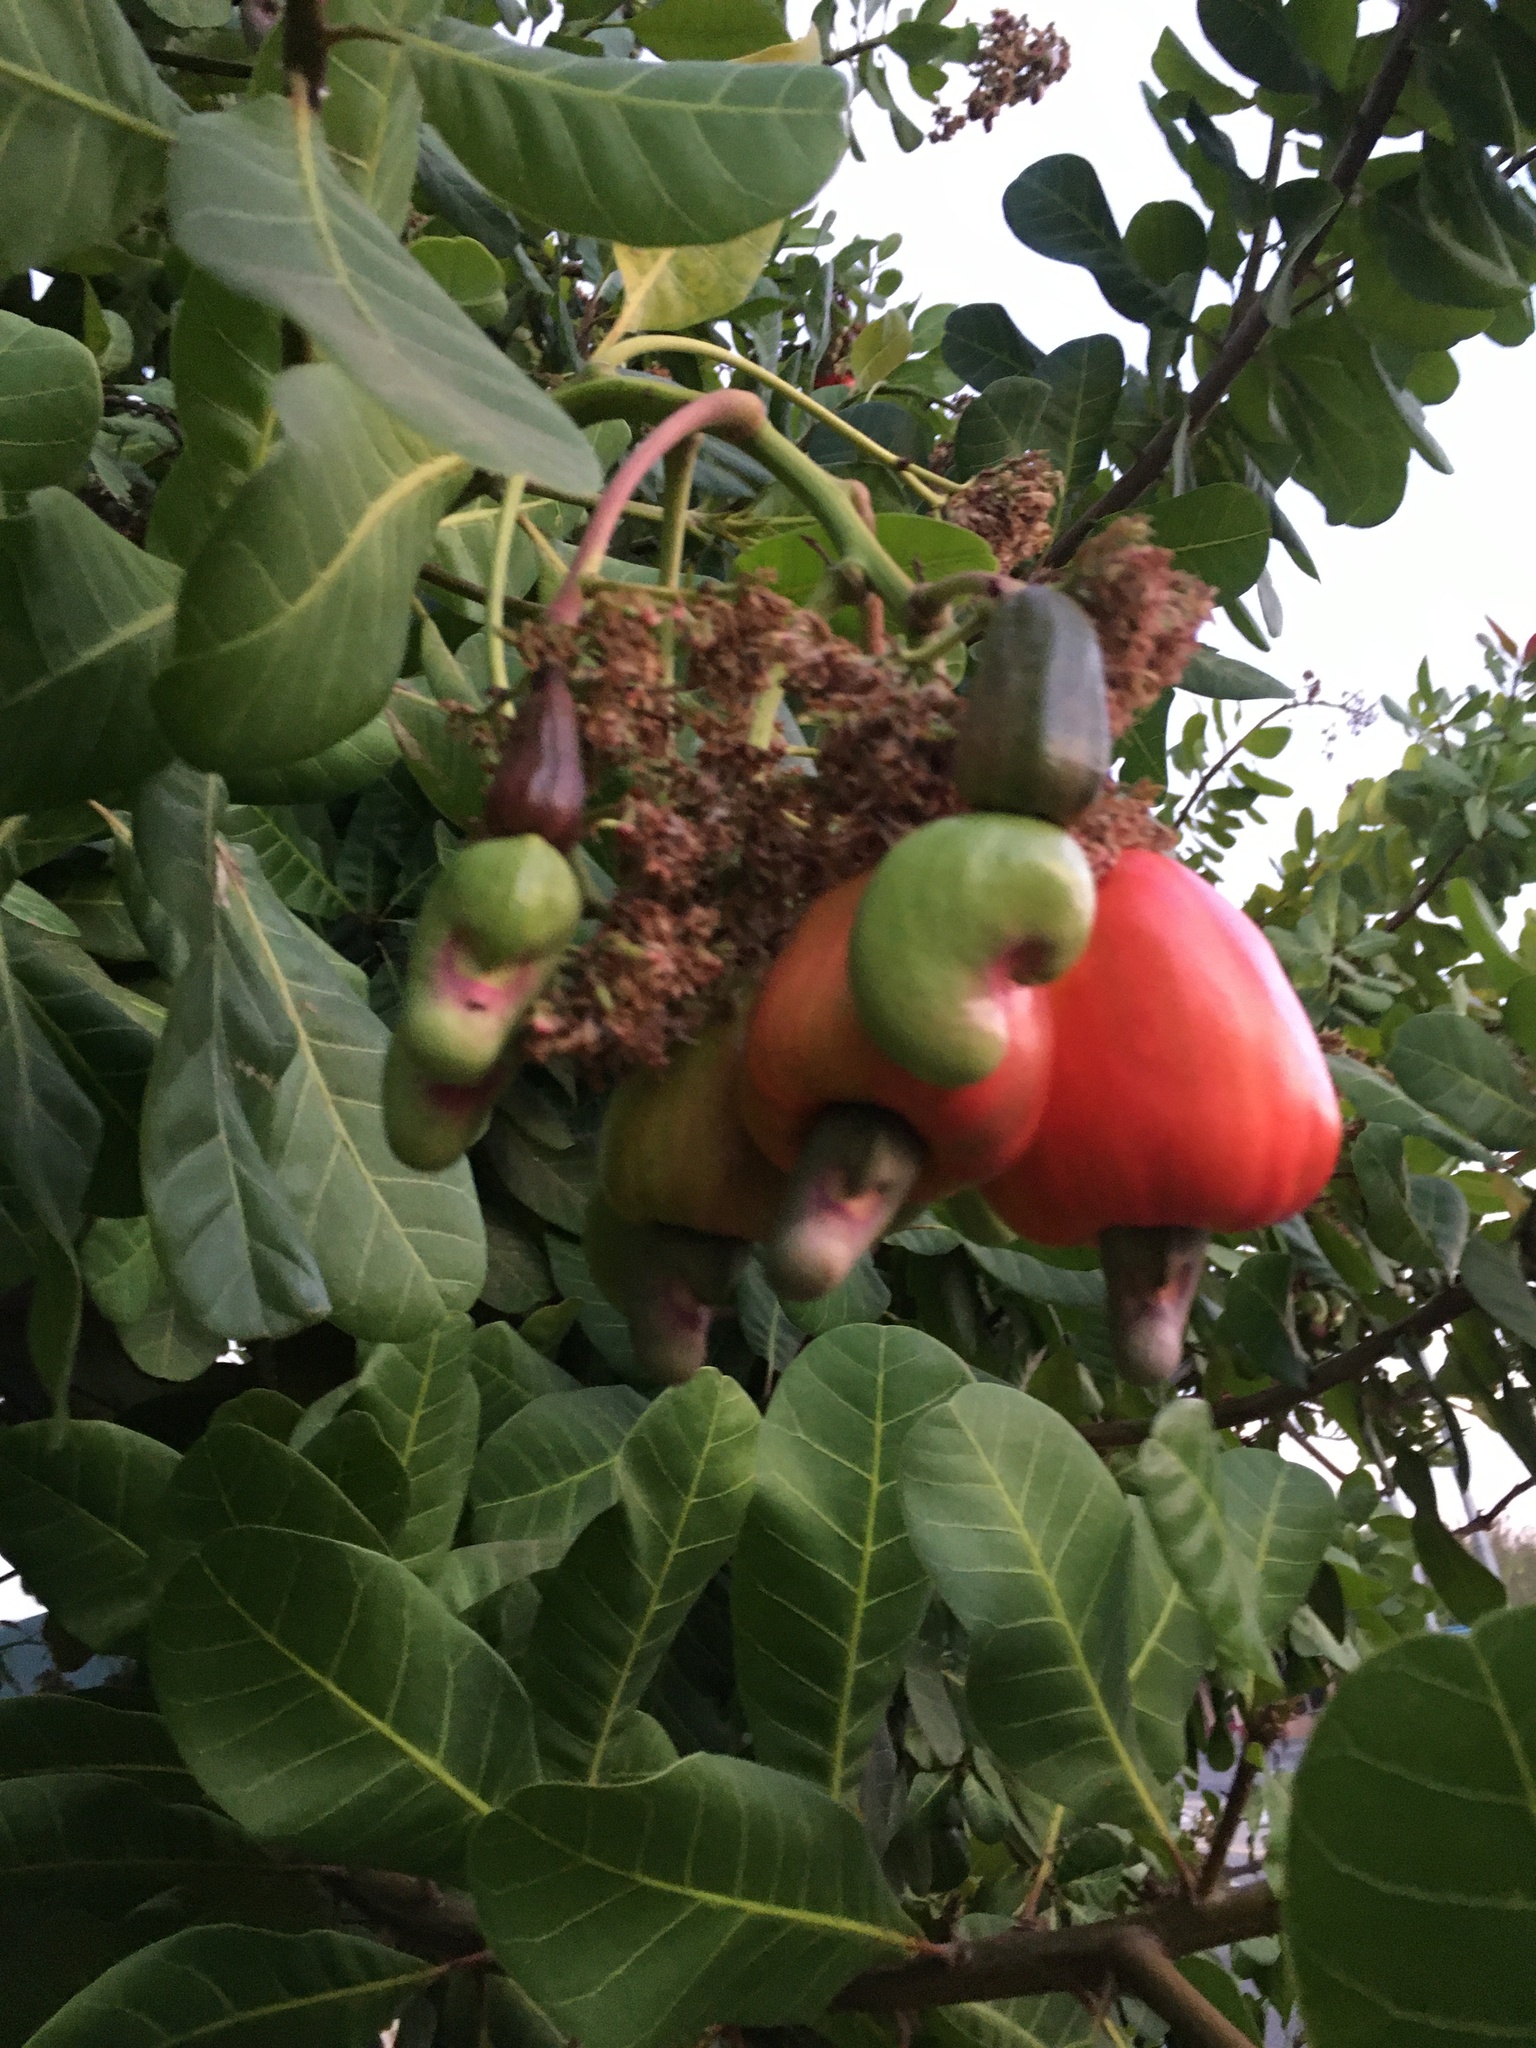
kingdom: Plantae
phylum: Tracheophyta
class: Magnoliopsida
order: Sapindales
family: Anacardiaceae
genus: Anacardium
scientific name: Anacardium occidentale
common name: Cashew
